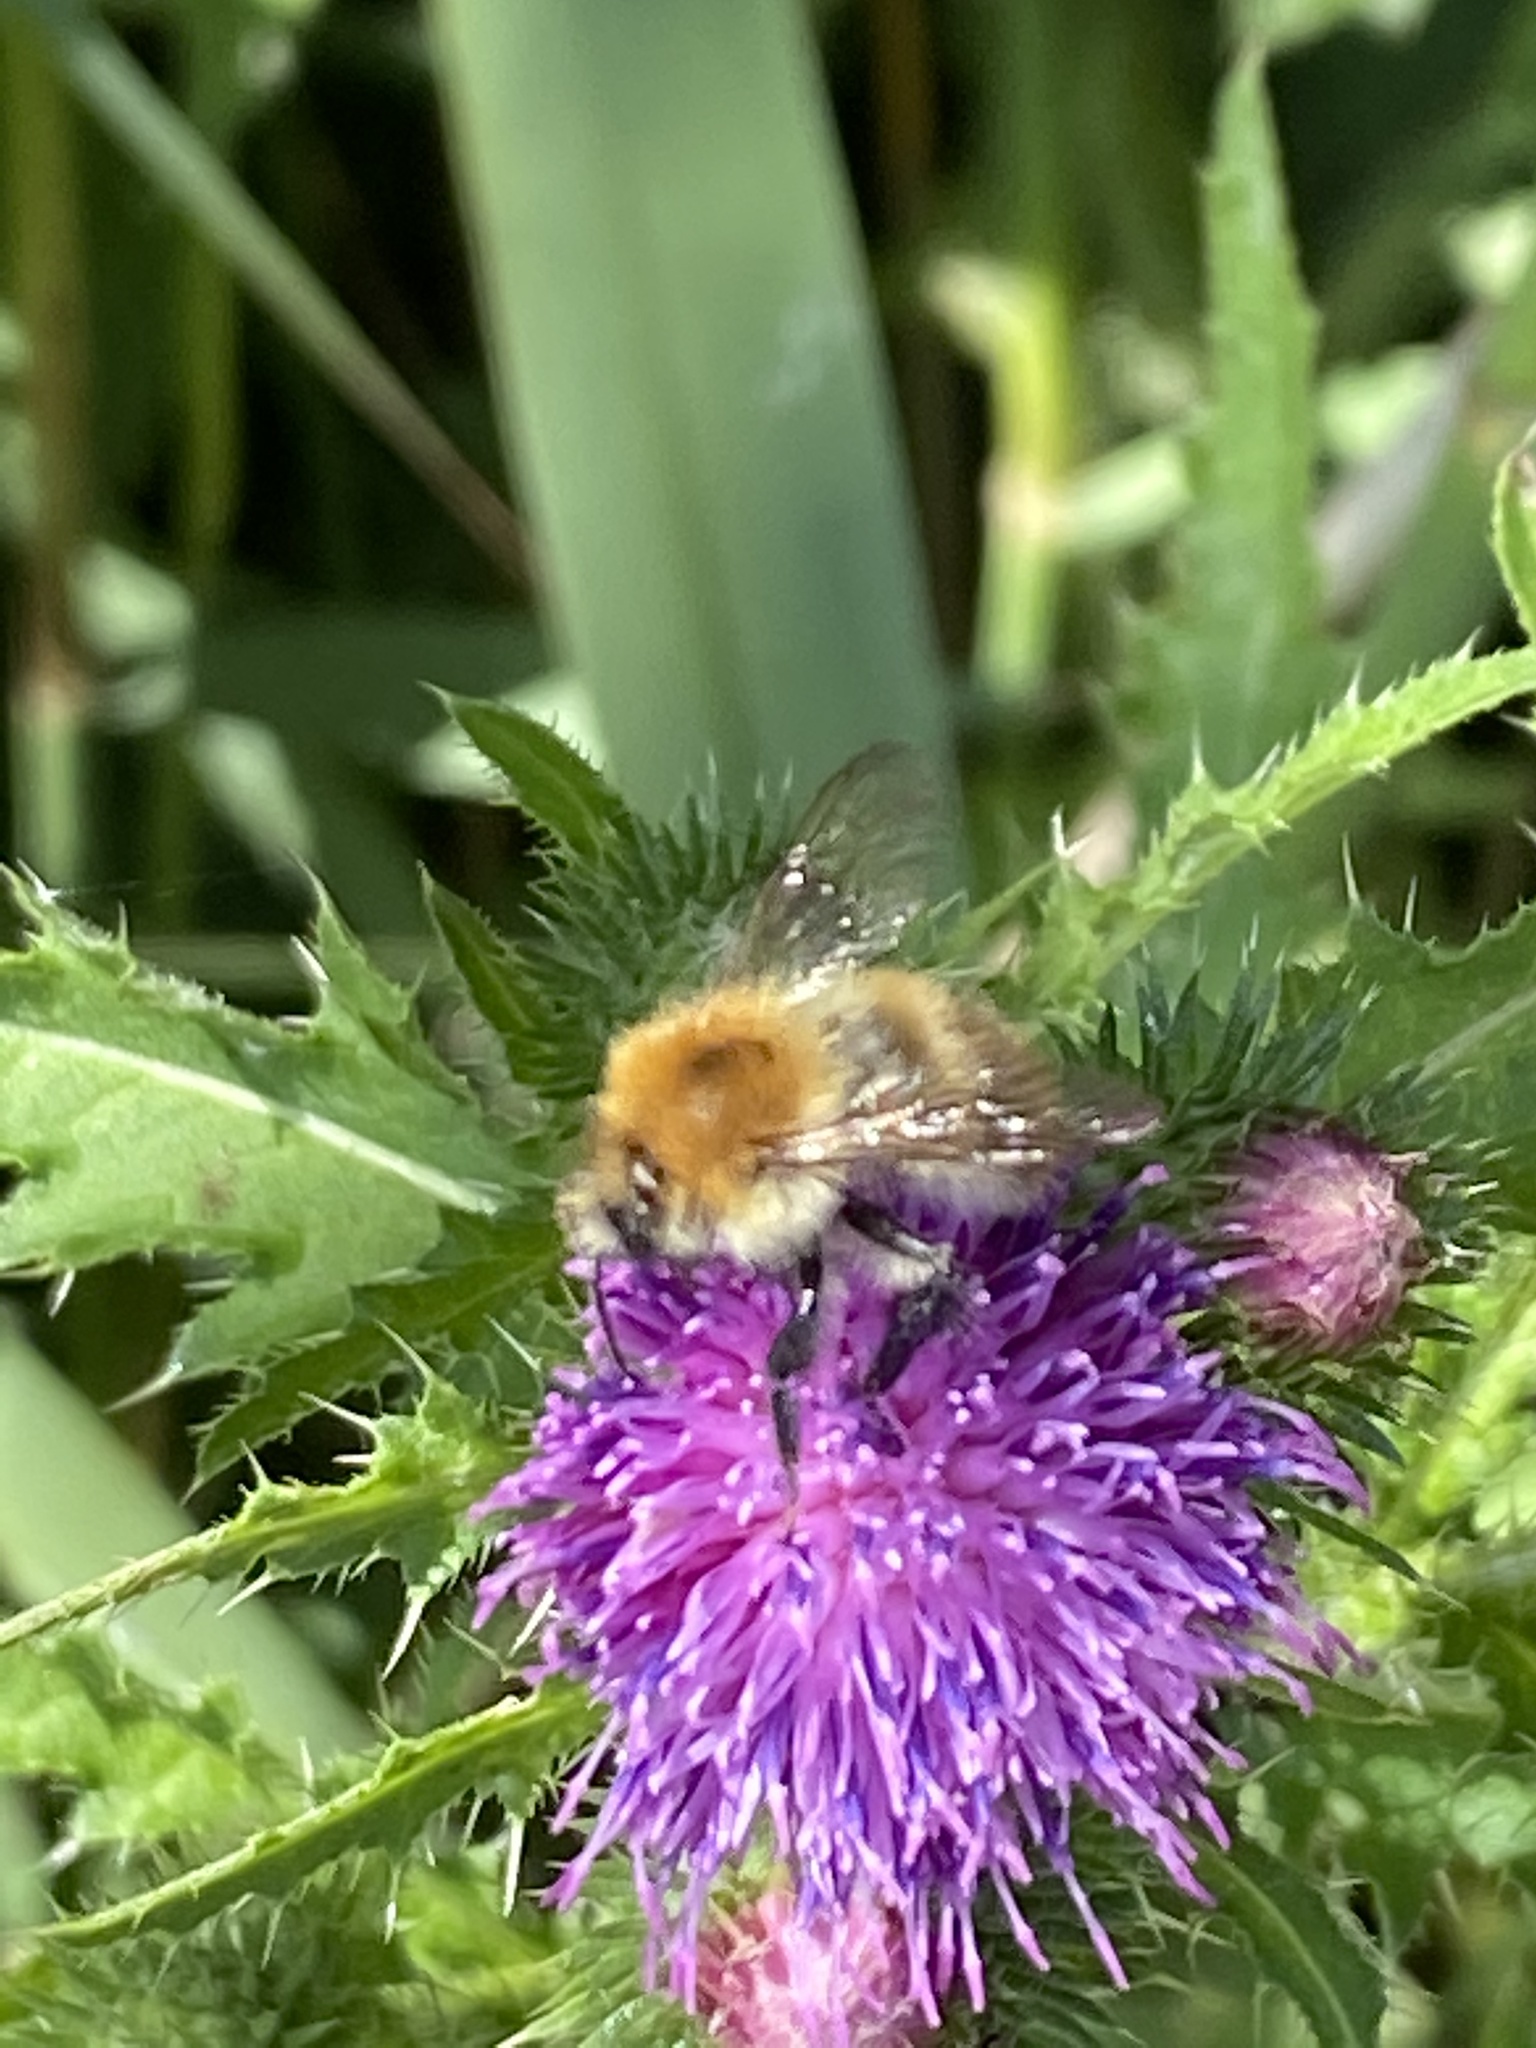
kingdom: Animalia
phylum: Arthropoda
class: Insecta
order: Hymenoptera
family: Apidae
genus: Bombus
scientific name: Bombus pascuorum
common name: Common carder bee
